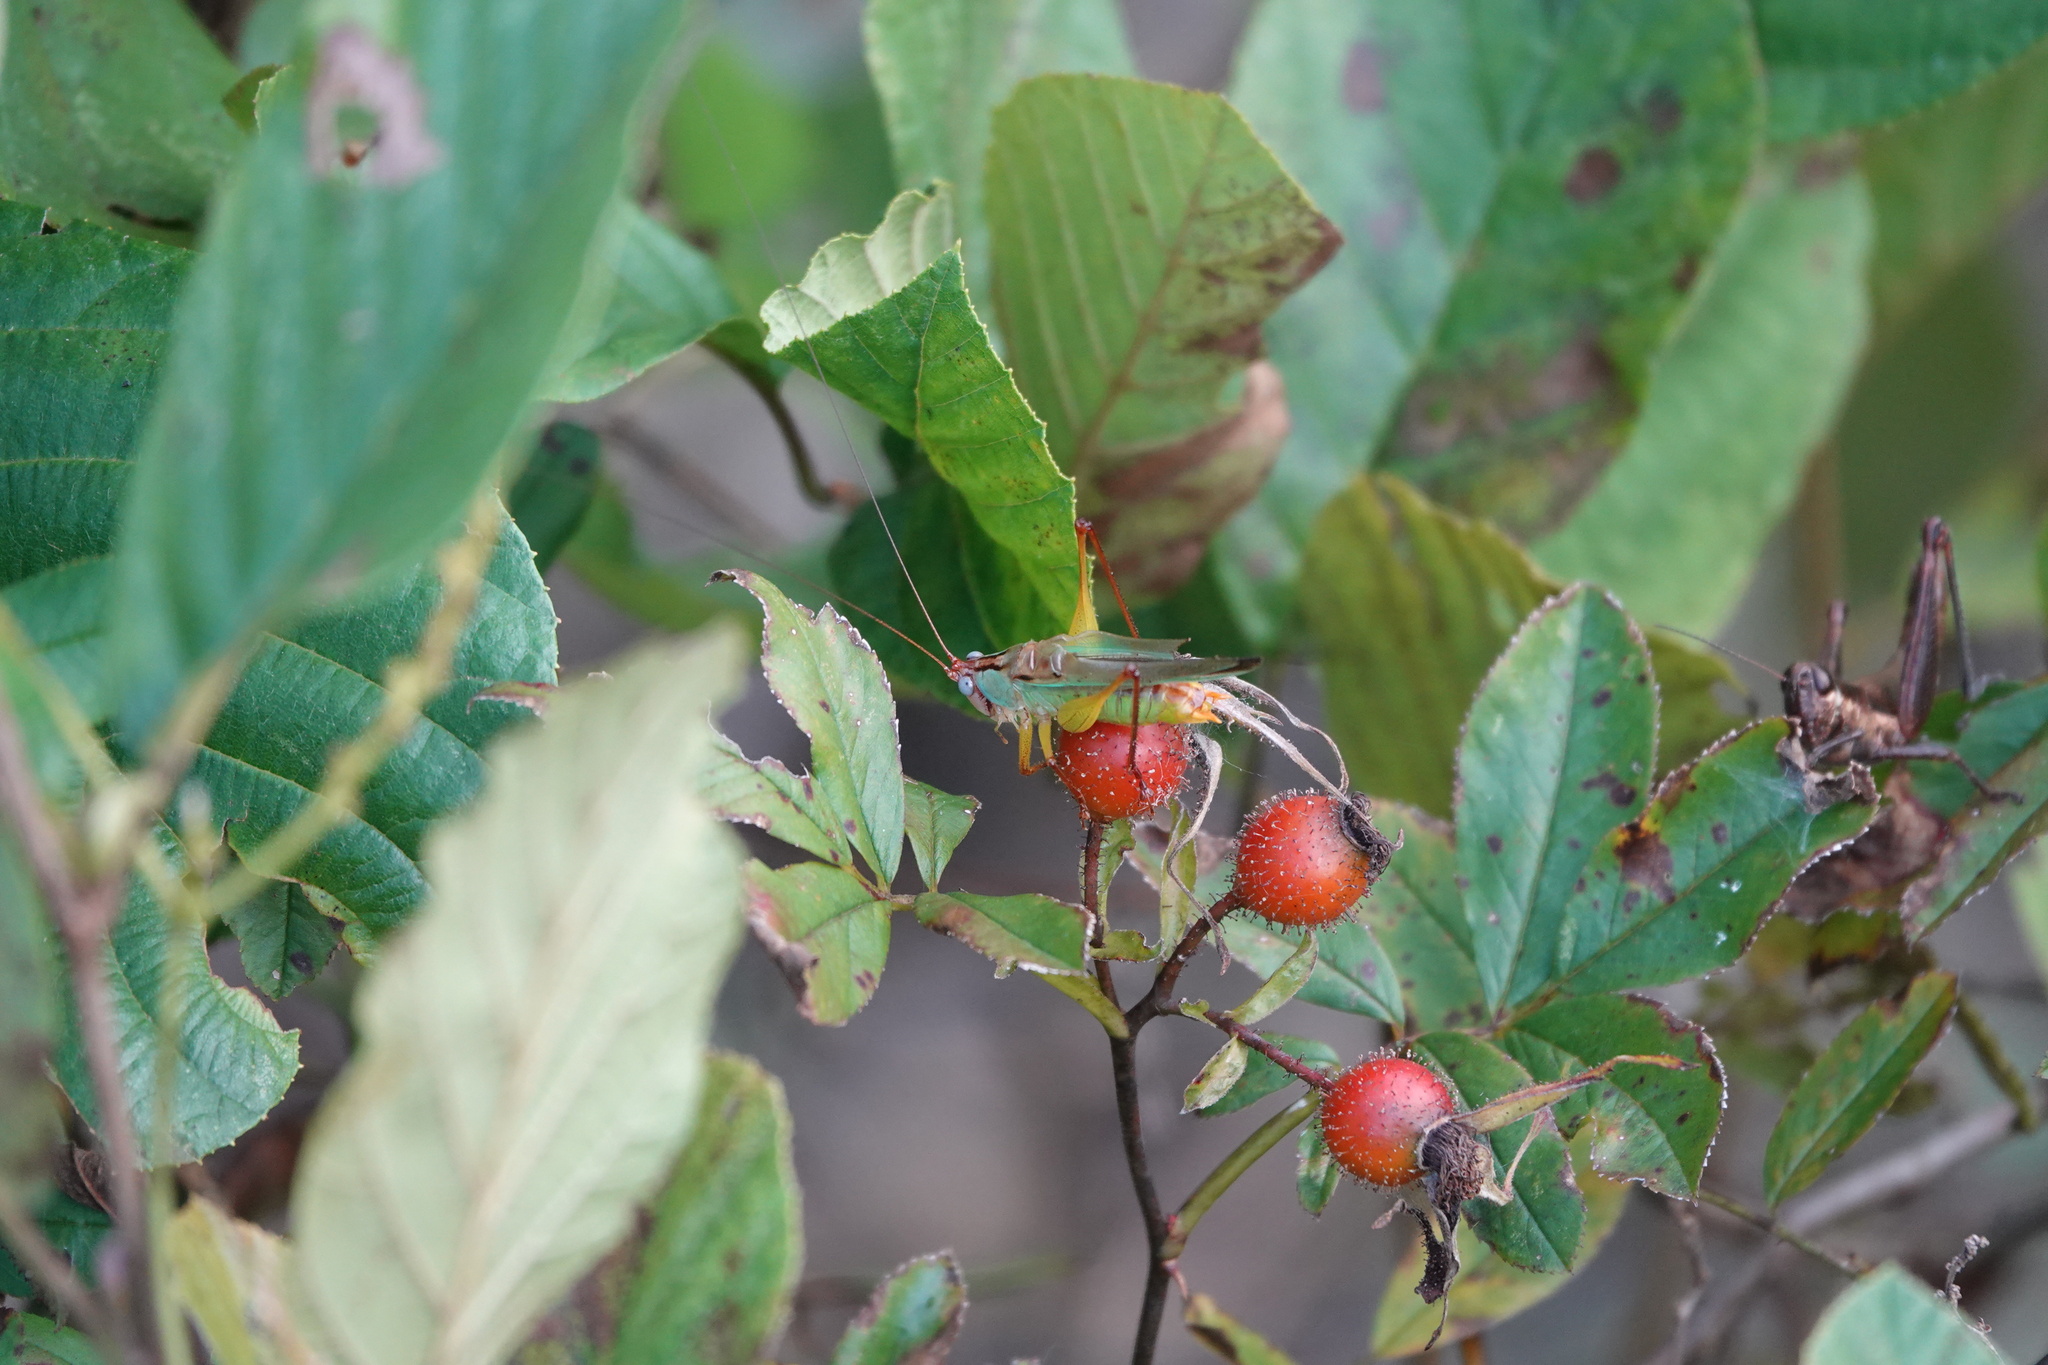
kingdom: Animalia
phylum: Arthropoda
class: Insecta
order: Orthoptera
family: Tettigoniidae
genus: Orchelimum
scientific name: Orchelimum pulchellum
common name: Handsome meadow katydid
